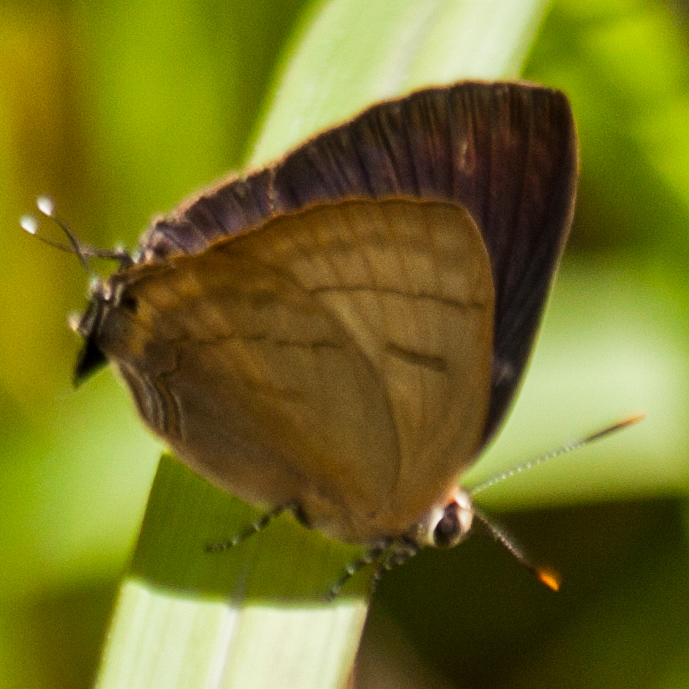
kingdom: Animalia
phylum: Arthropoda
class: Insecta
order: Lepidoptera
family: Lycaenidae
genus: Rapala
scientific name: Rapala pheretima
